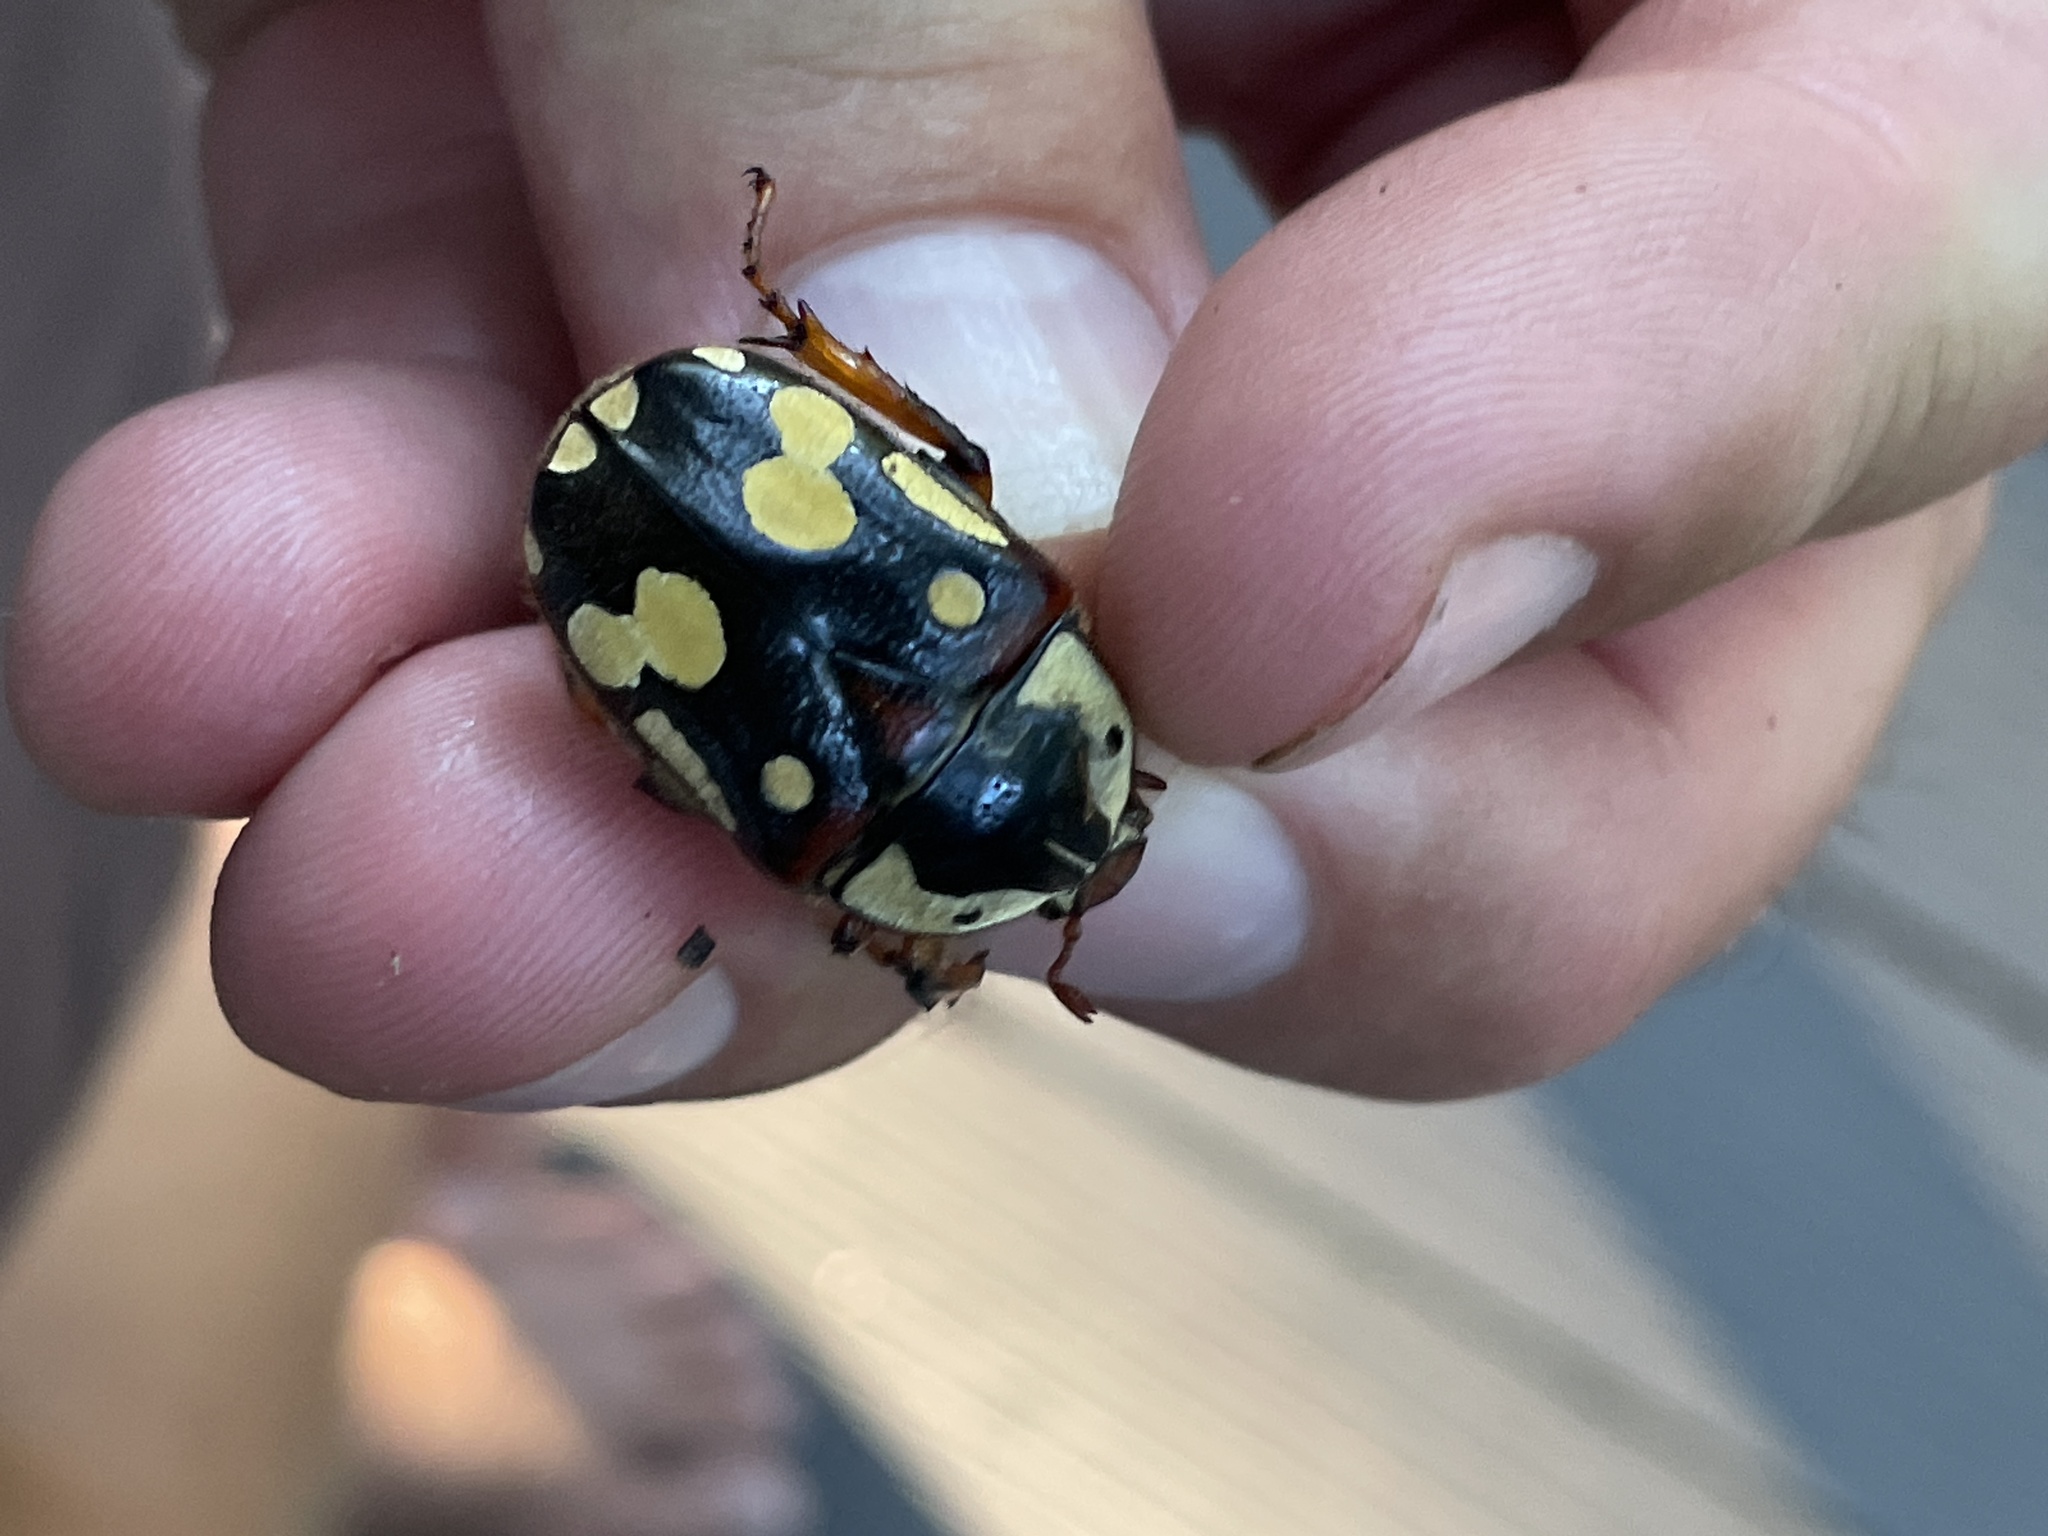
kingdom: Animalia
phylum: Arthropoda
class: Insecta
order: Coleoptera
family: Scarabaeidae
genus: Cheirolasia
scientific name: Cheirolasia burkei
